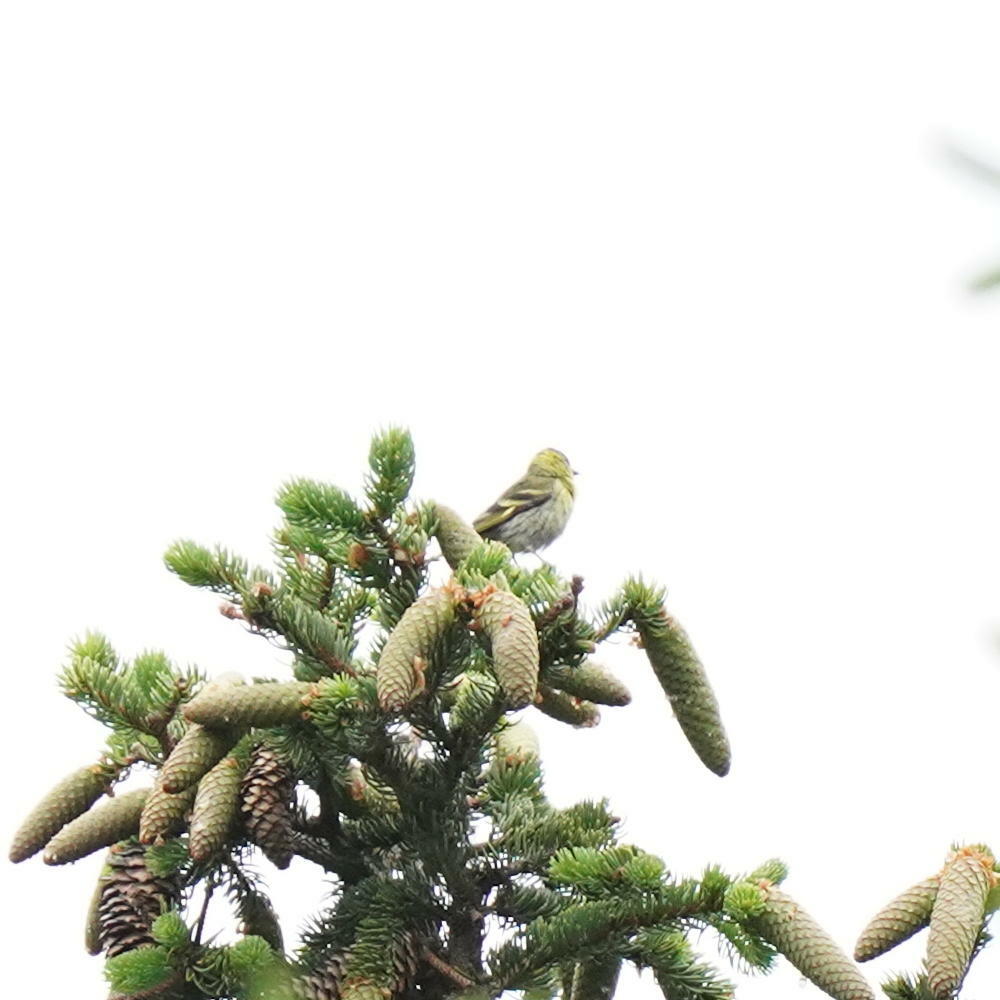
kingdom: Animalia
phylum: Chordata
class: Aves
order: Passeriformes
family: Fringillidae
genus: Spinus
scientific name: Spinus spinus
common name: Eurasian siskin
